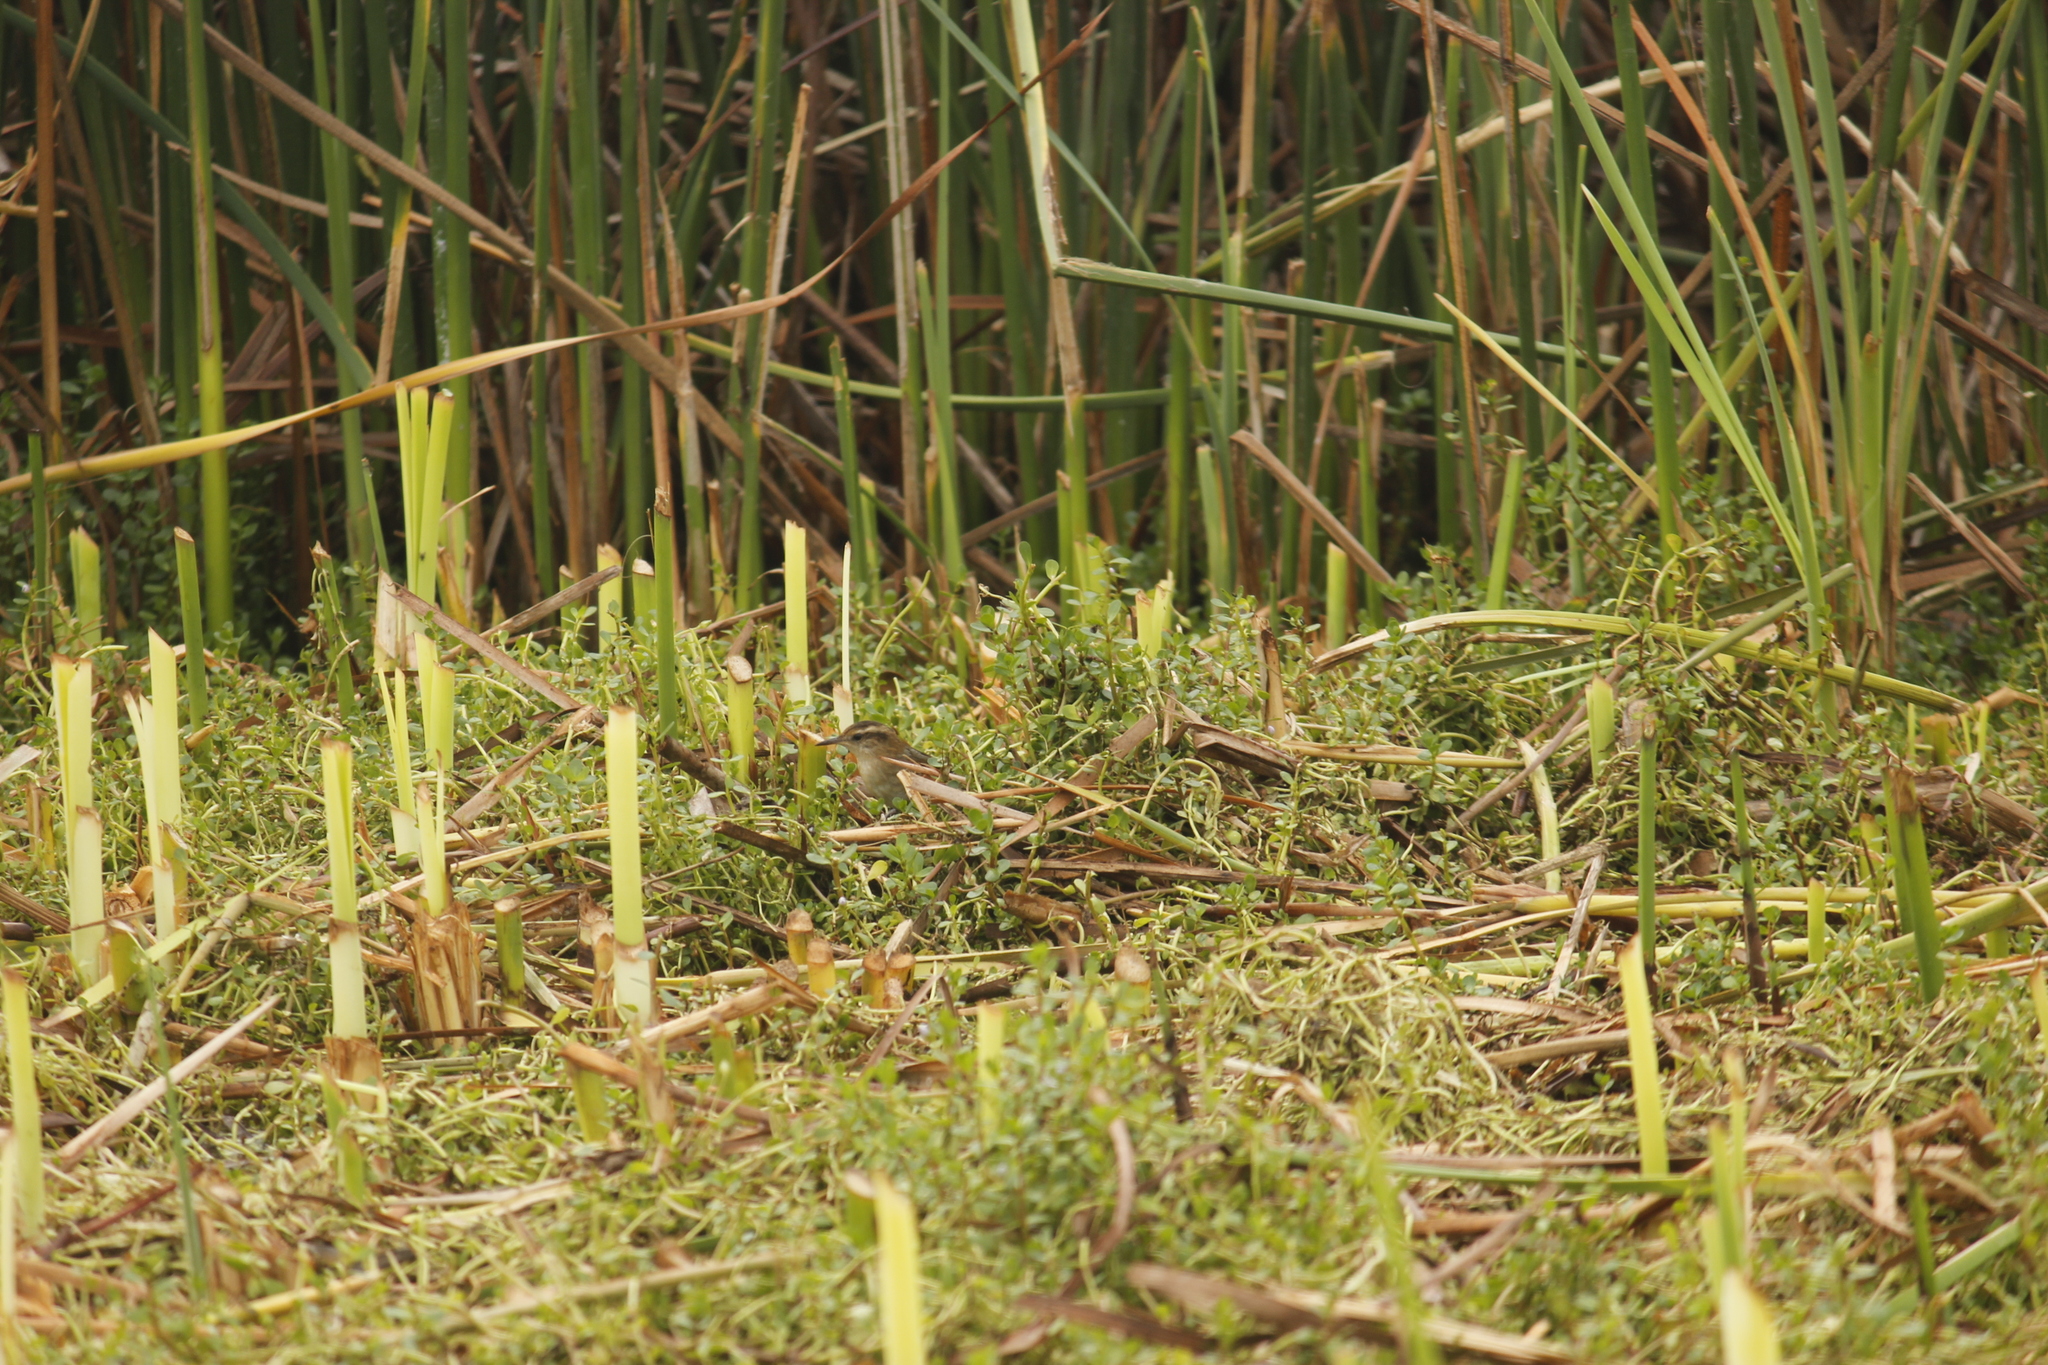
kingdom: Animalia
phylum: Chordata
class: Aves
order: Passeriformes
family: Furnariidae
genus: Phleocryptes
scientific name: Phleocryptes melanops
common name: Wren-like rushbird
